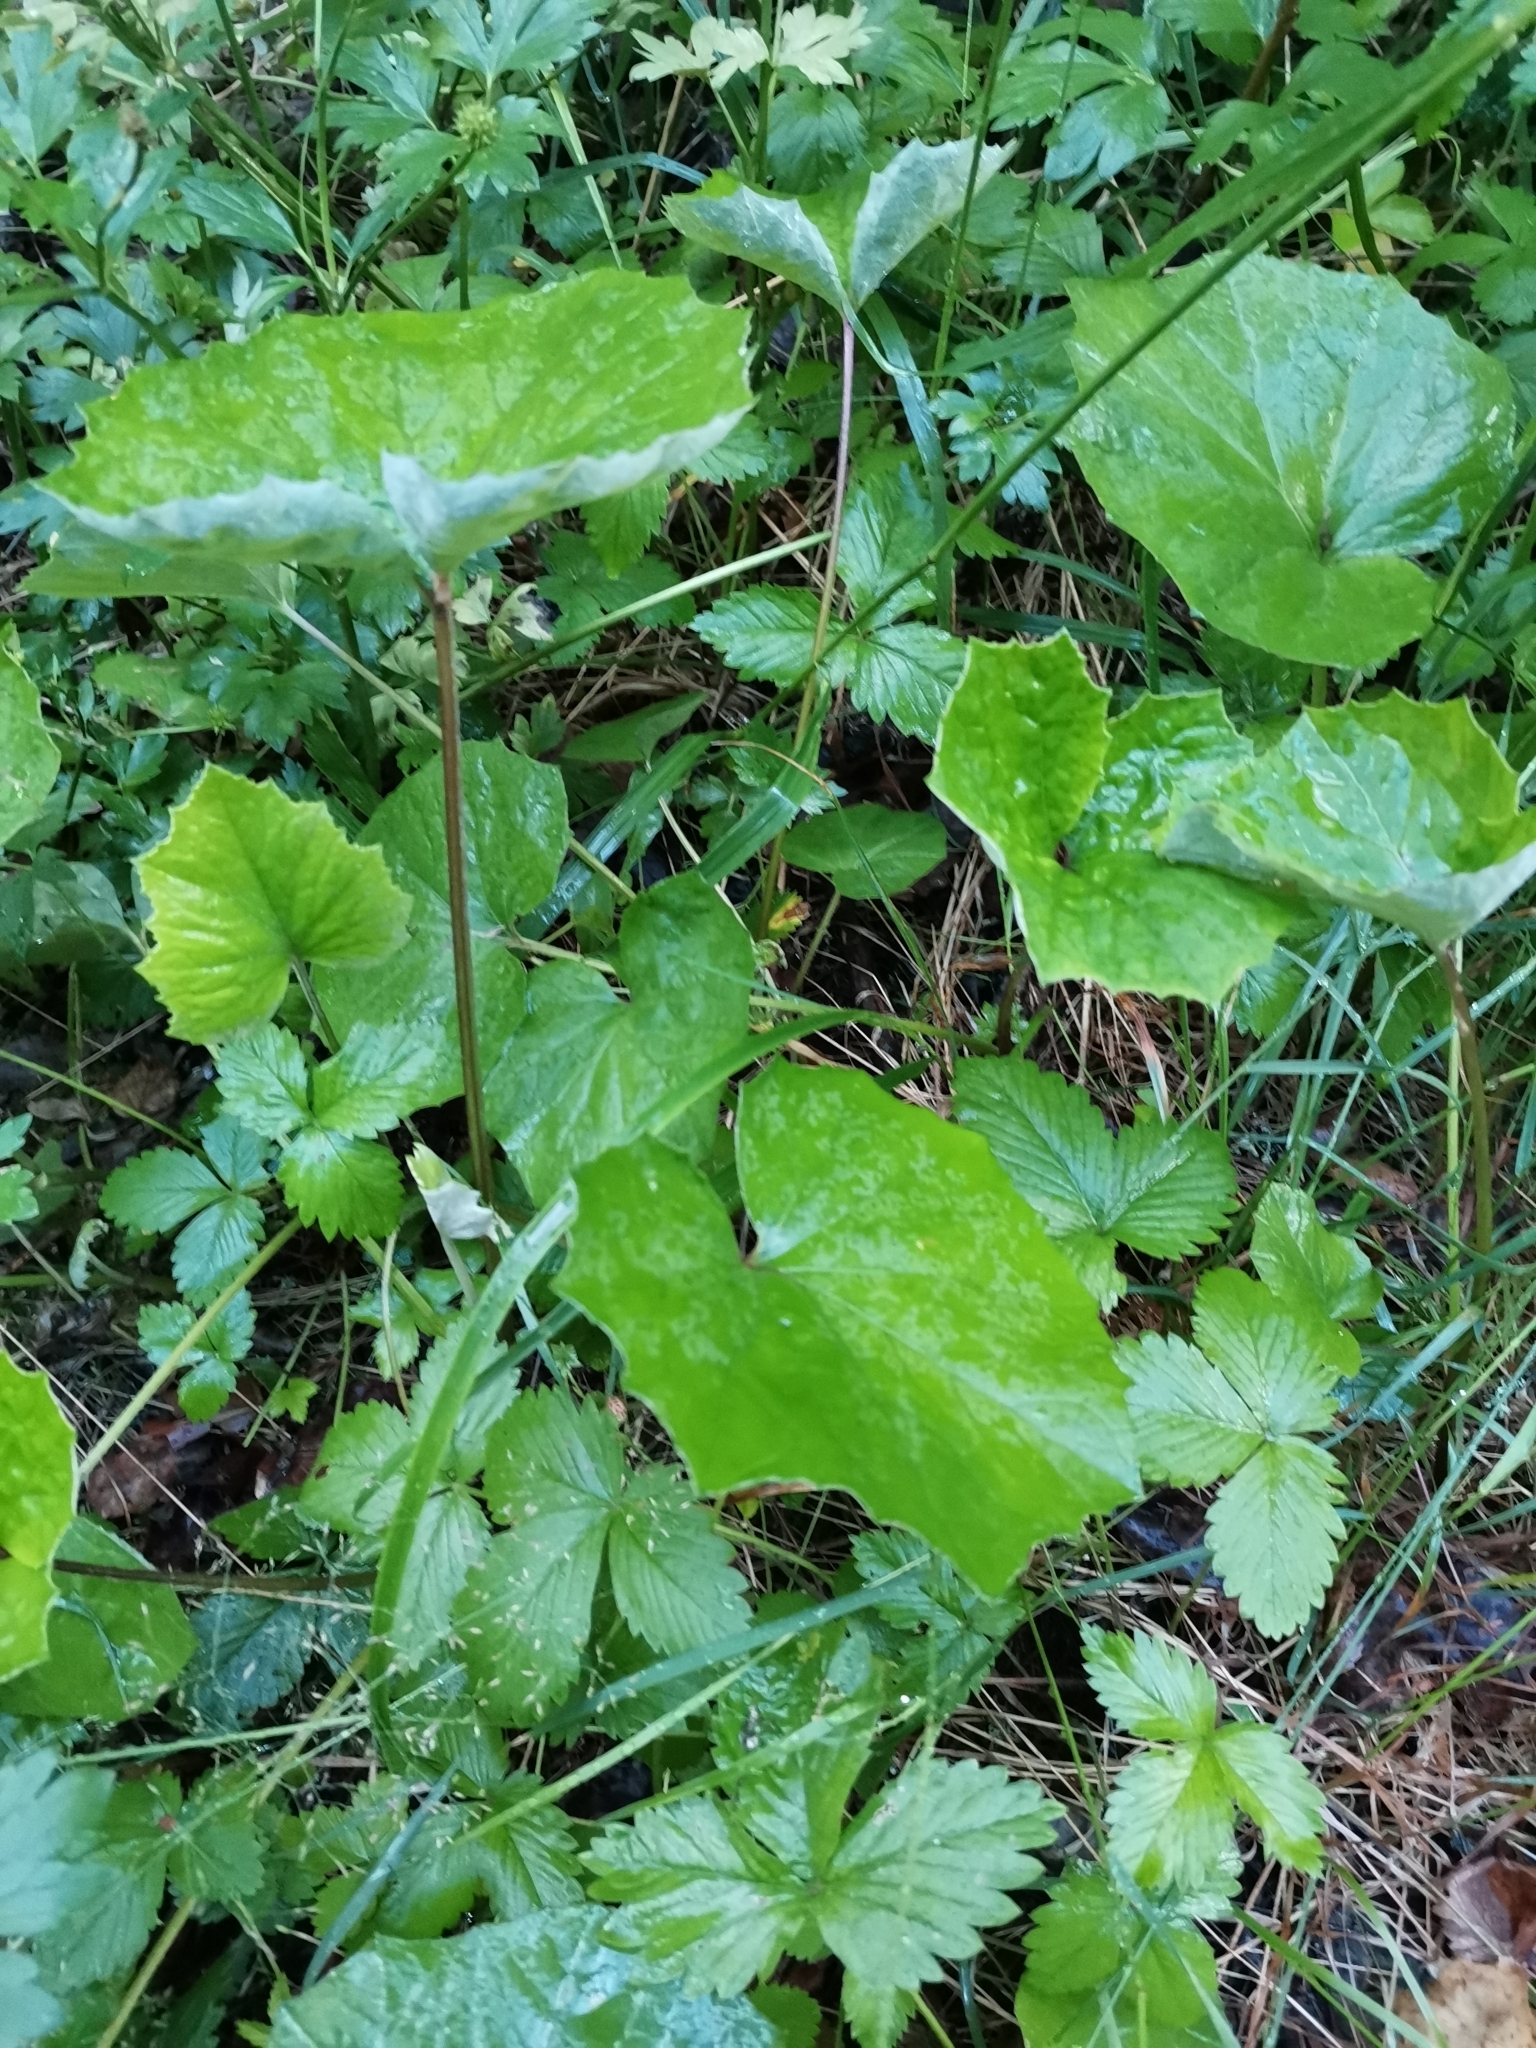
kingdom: Plantae
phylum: Tracheophyta
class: Magnoliopsida
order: Asterales
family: Asteraceae
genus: Tussilago
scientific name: Tussilago farfara
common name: Coltsfoot
